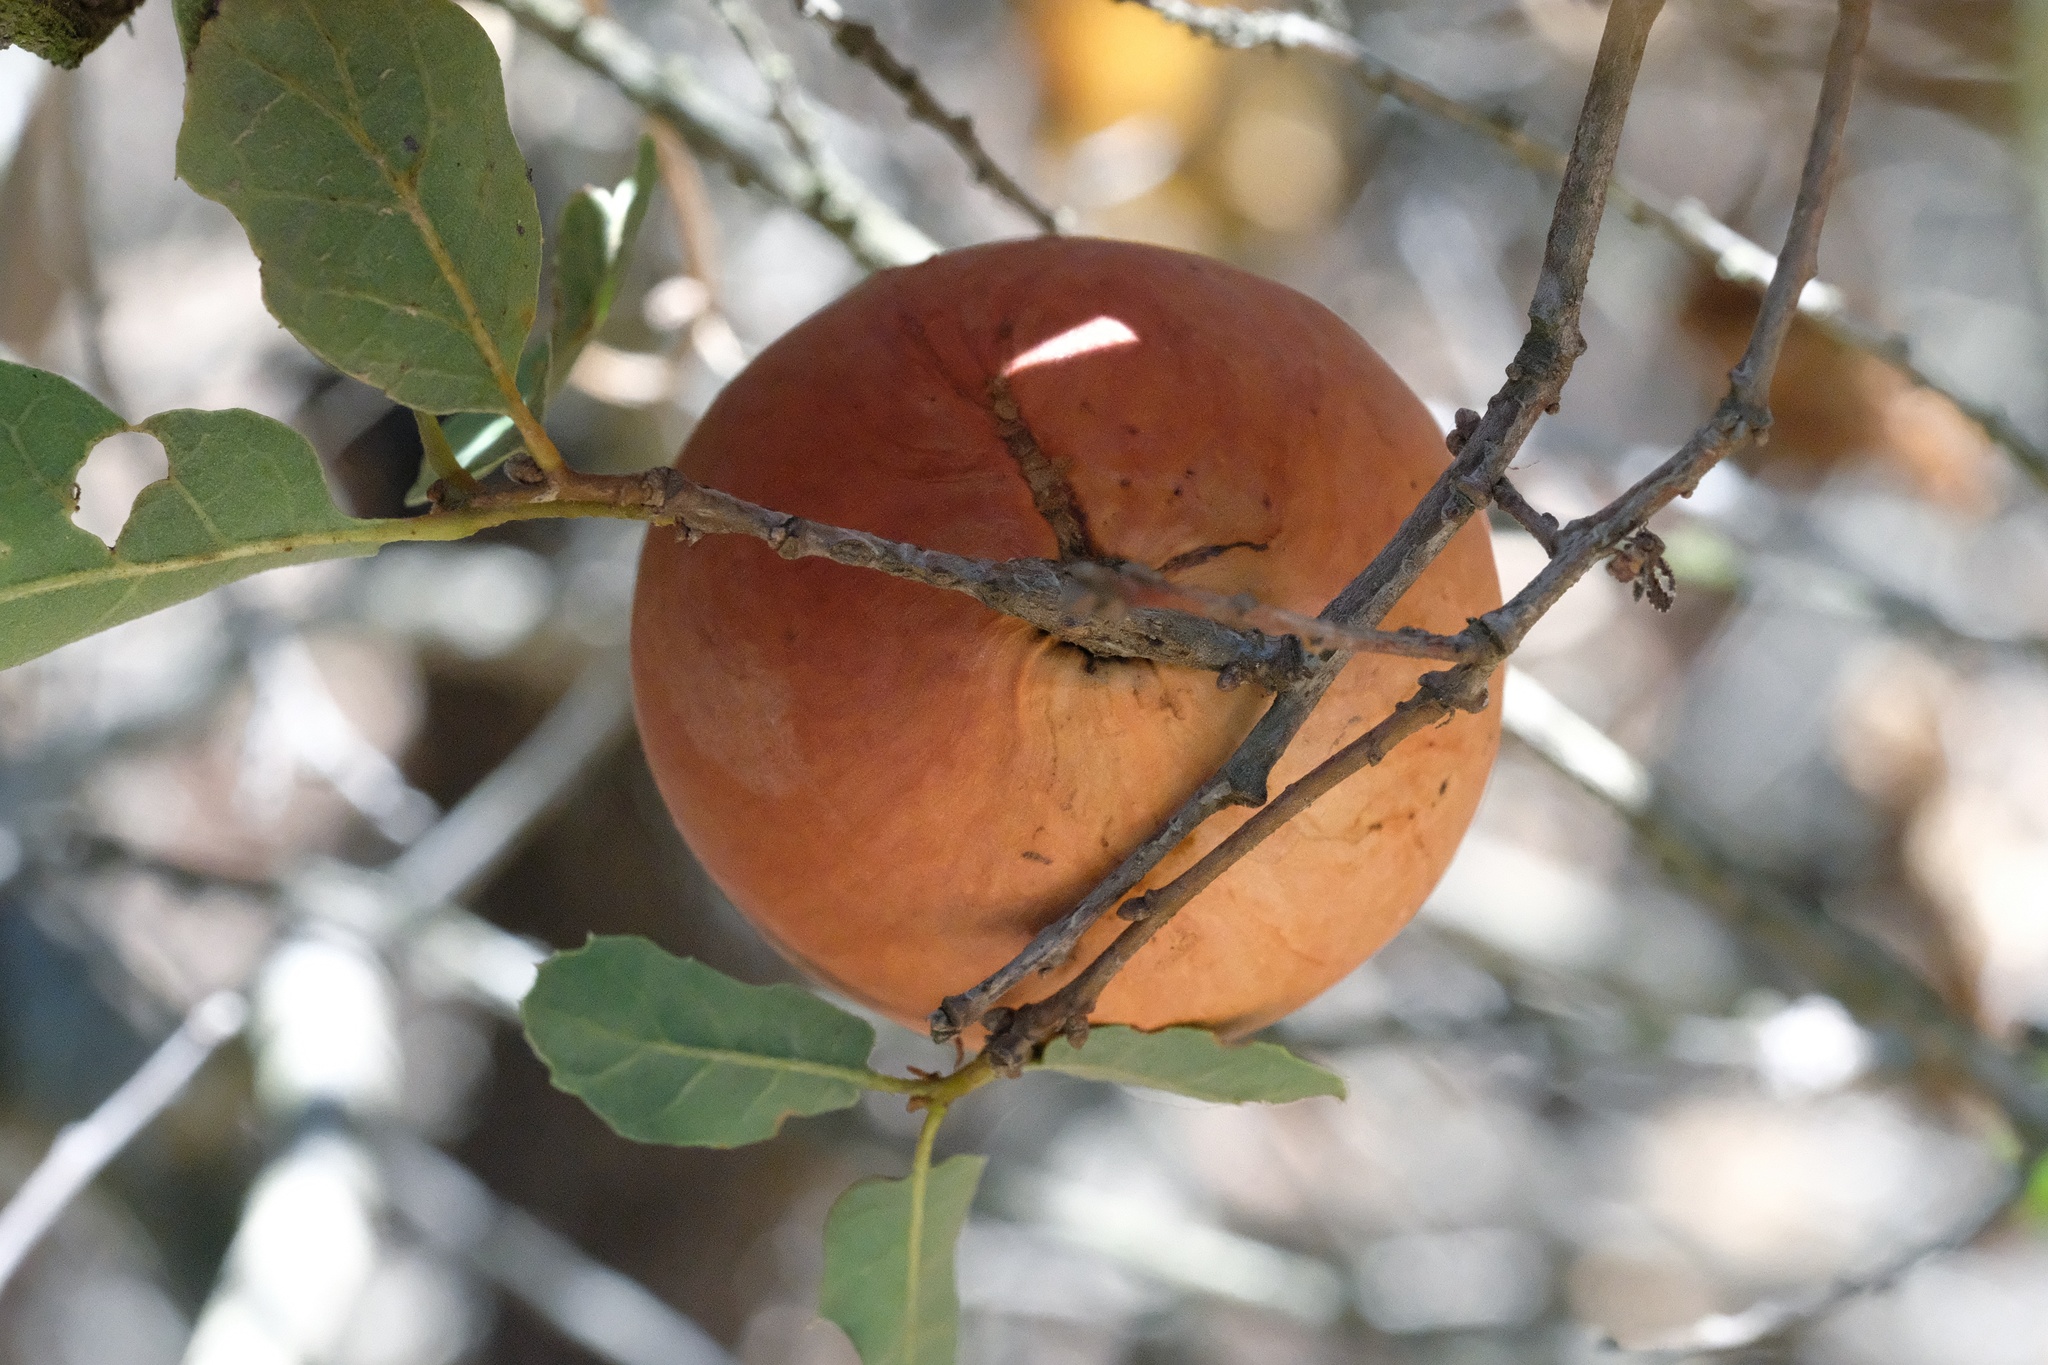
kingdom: Animalia
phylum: Arthropoda
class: Insecta
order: Hymenoptera
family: Cynipidae
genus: Andricus
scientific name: Andricus quercuscalifornicus
